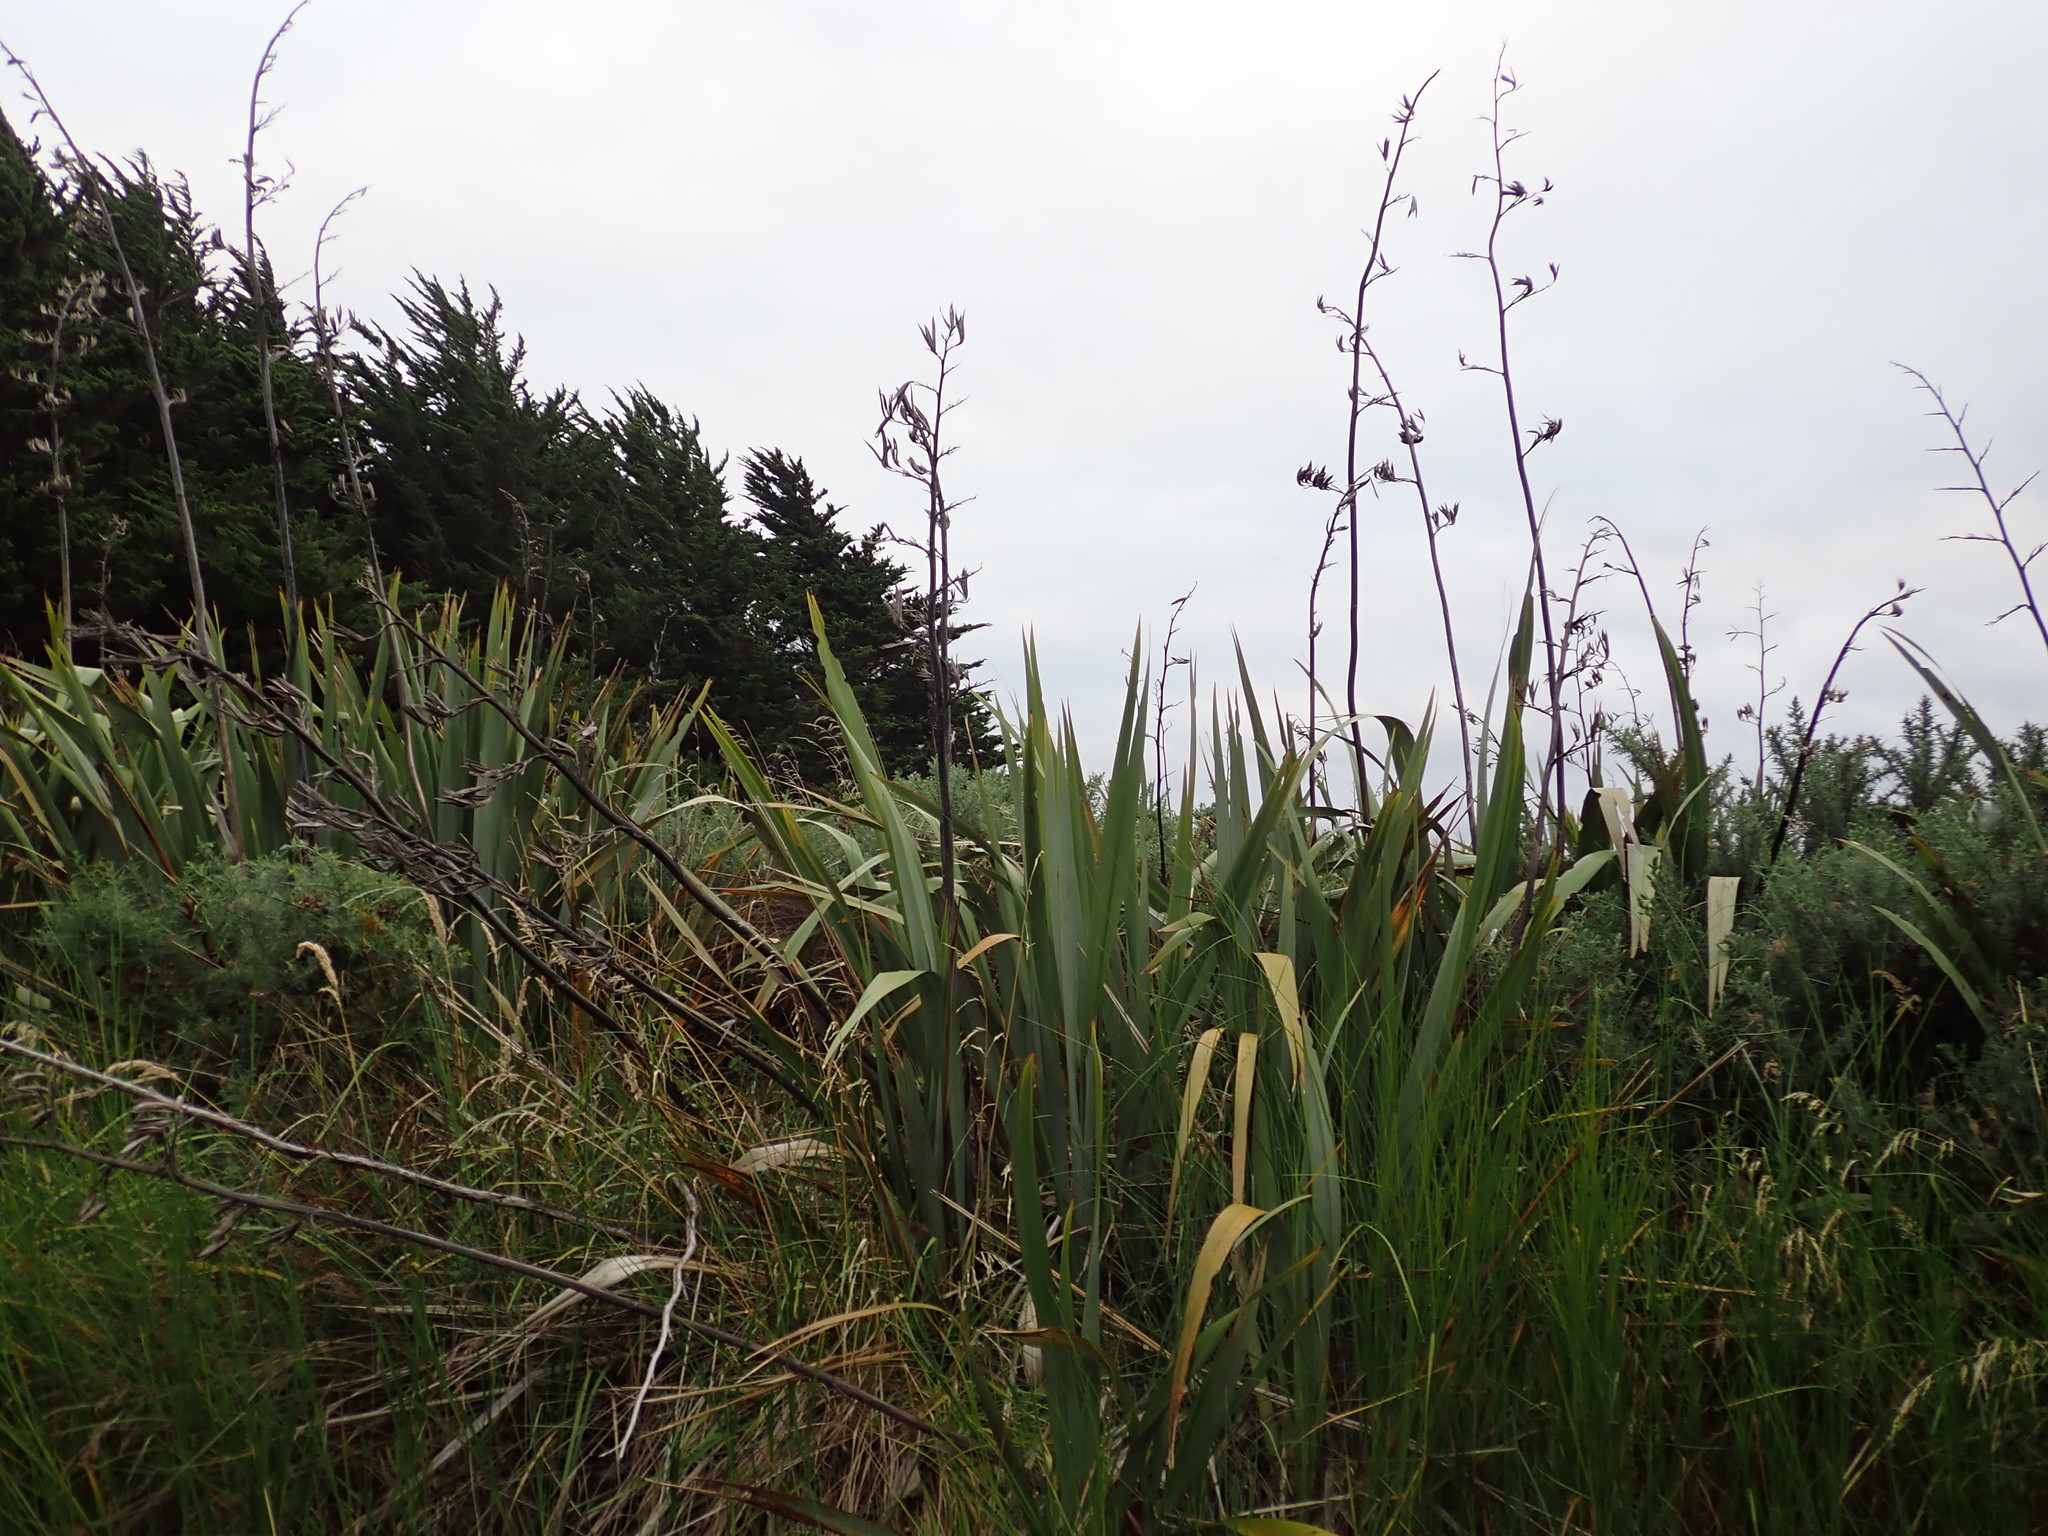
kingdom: Plantae
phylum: Tracheophyta
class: Liliopsida
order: Asparagales
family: Asphodelaceae
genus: Phormium
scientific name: Phormium tenax
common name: New zealand flax
